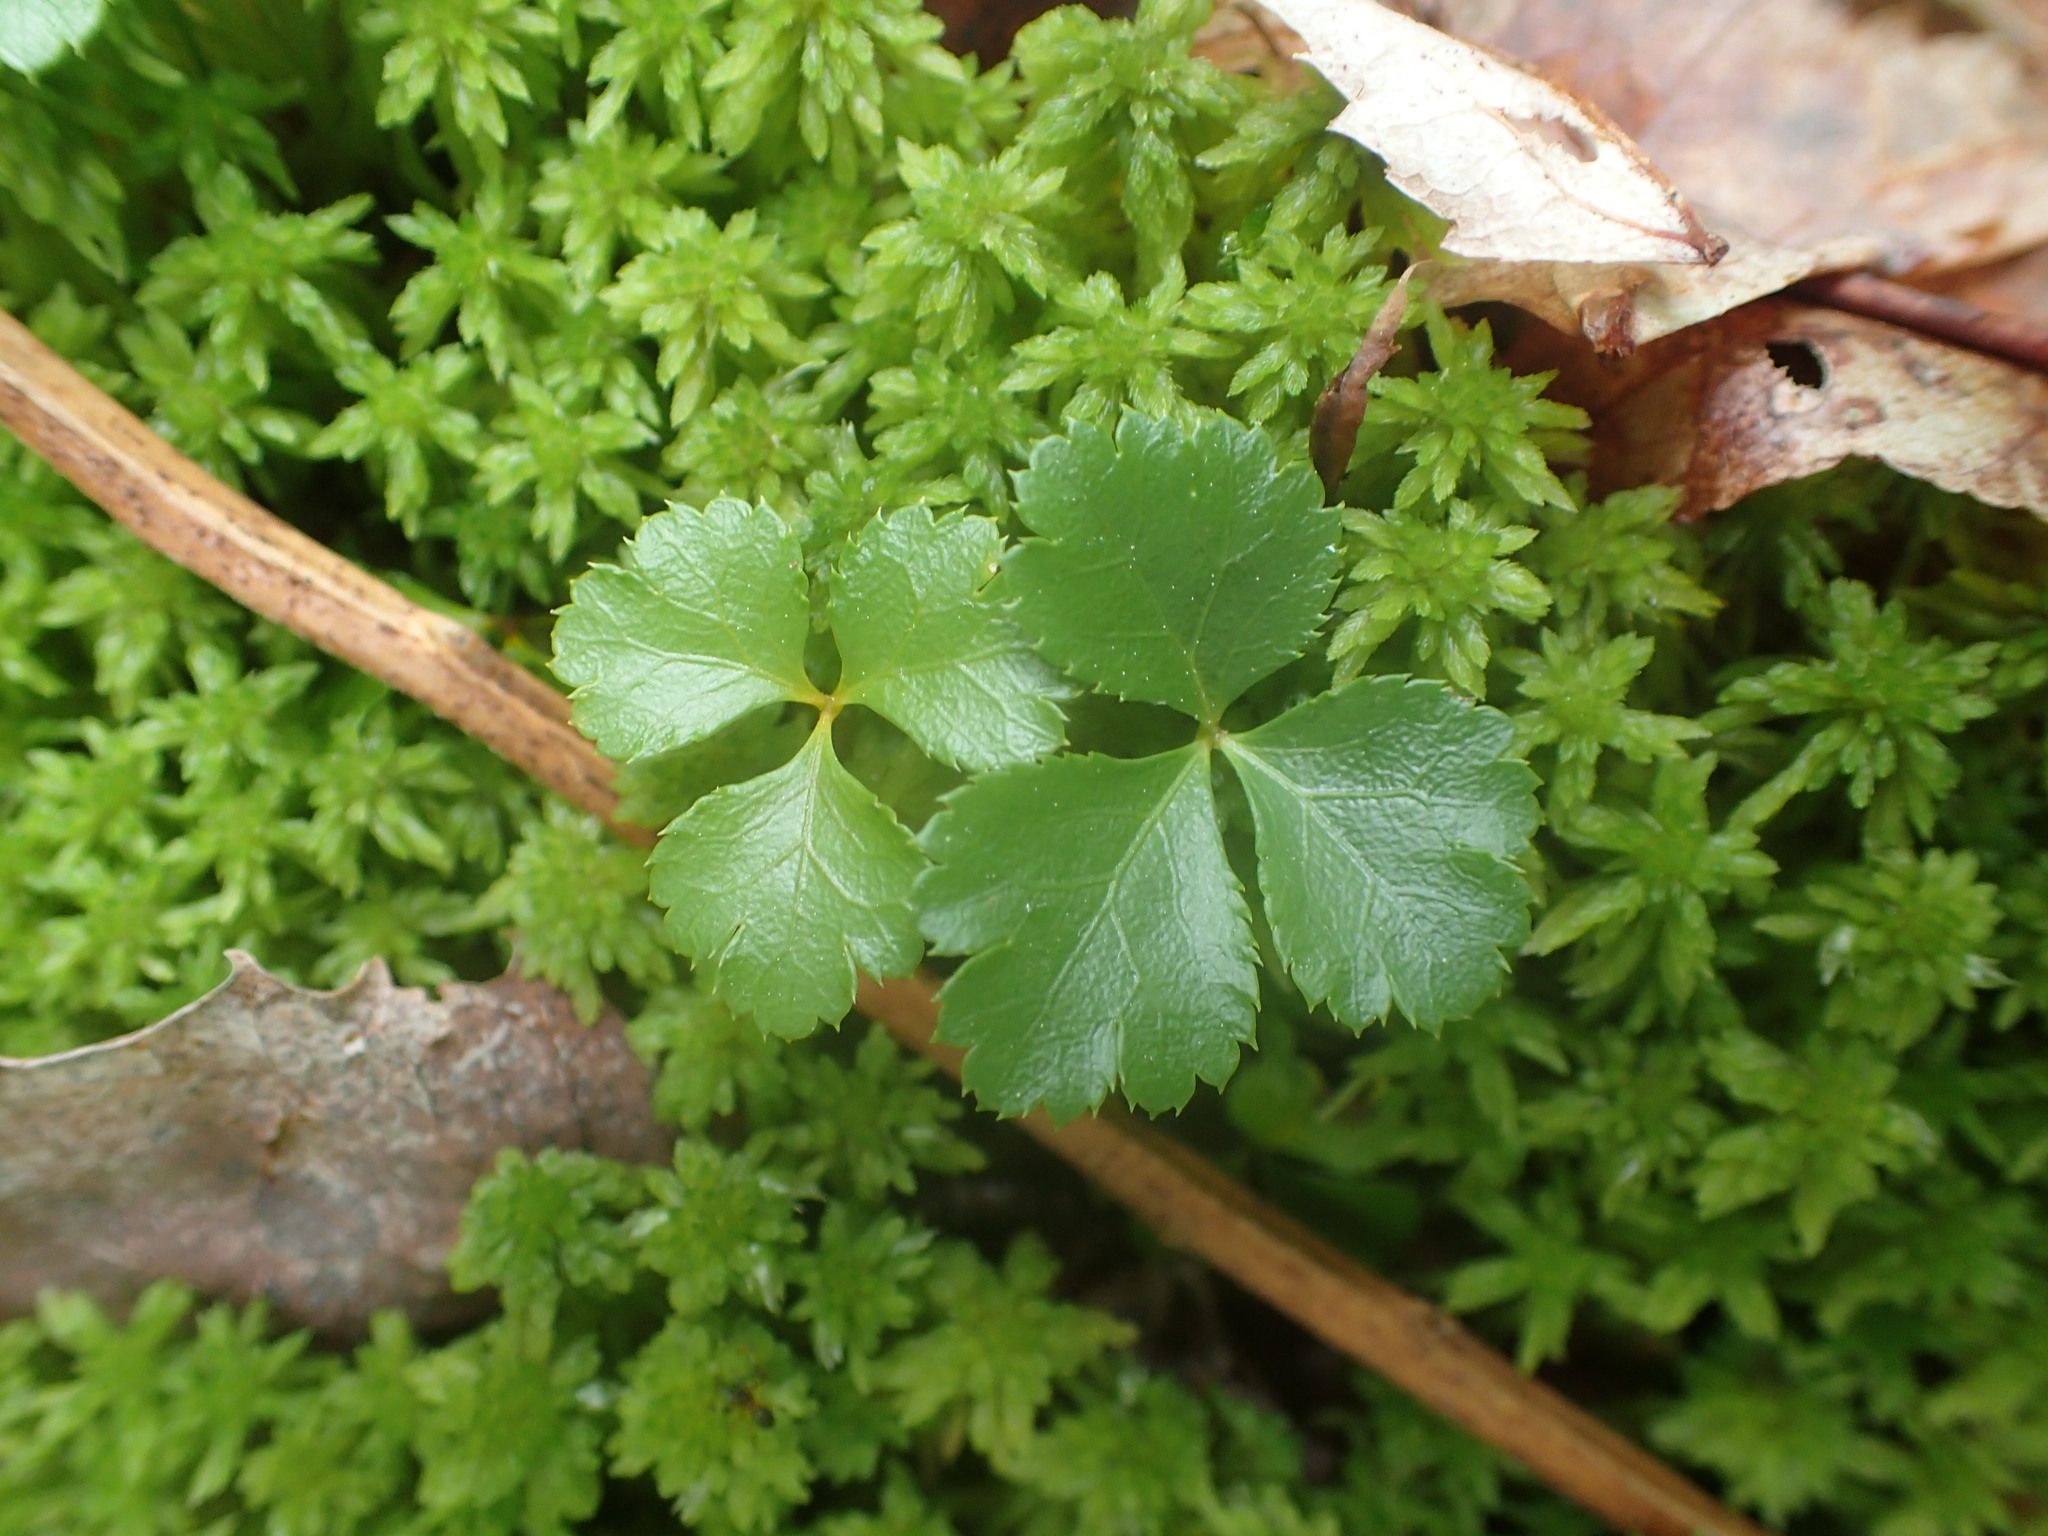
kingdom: Plantae
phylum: Tracheophyta
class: Magnoliopsida
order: Ranunculales
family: Ranunculaceae
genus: Coptis
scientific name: Coptis trifolia
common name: Canker-root
